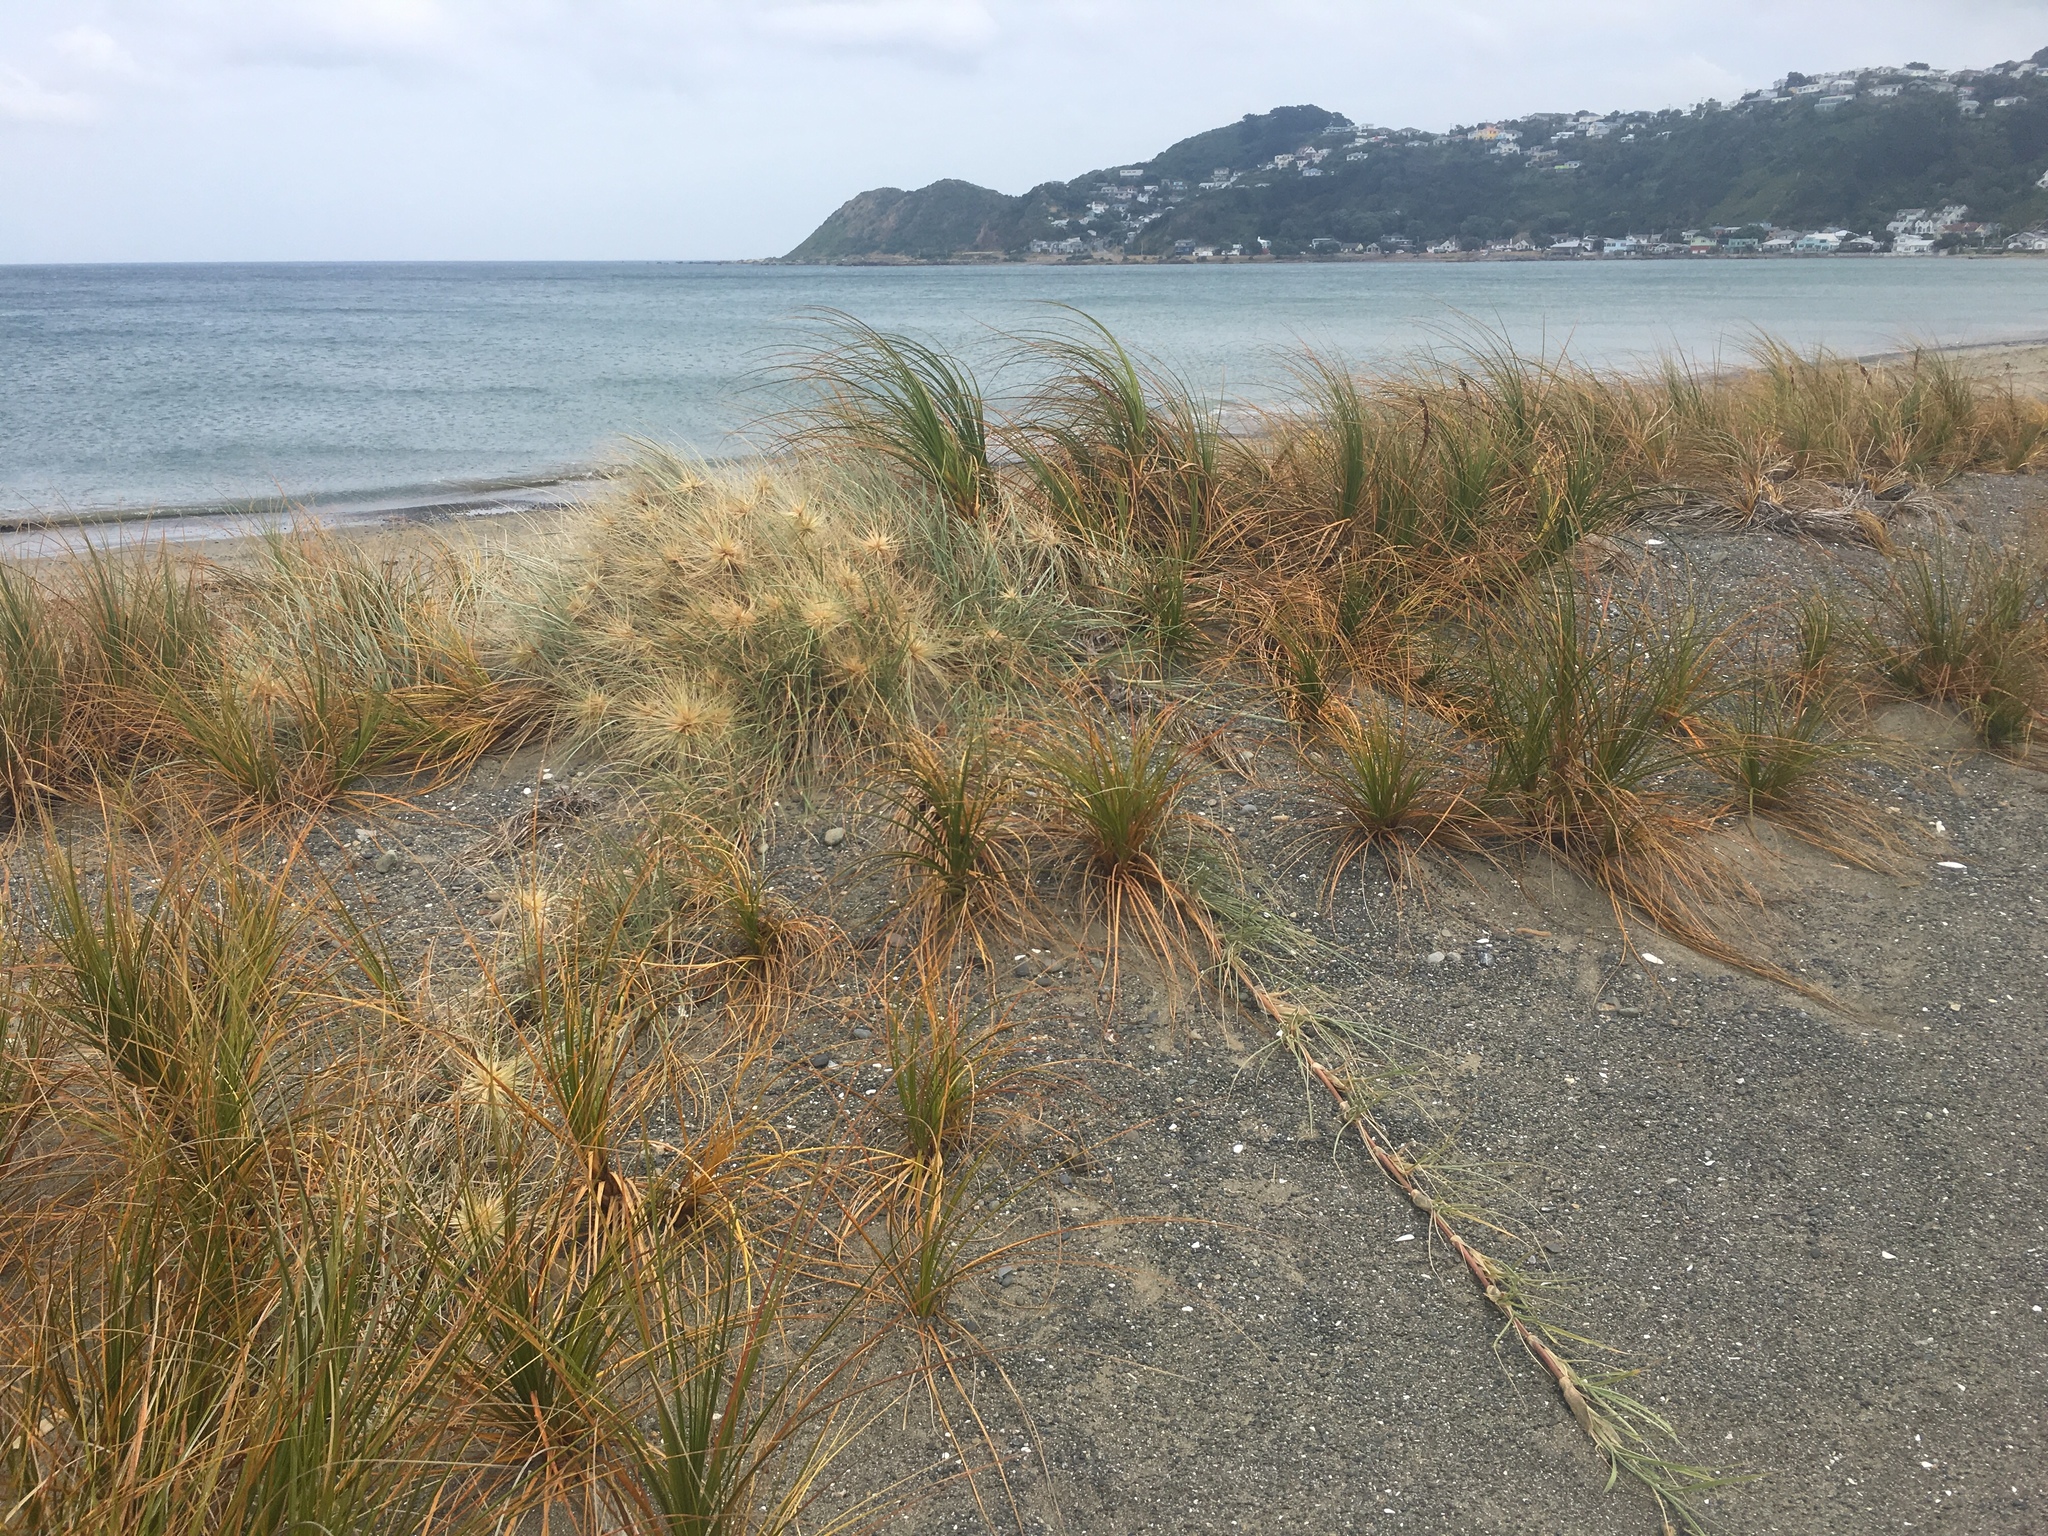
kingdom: Plantae
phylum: Tracheophyta
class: Liliopsida
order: Poales
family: Poaceae
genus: Spinifex
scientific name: Spinifex sericeus
